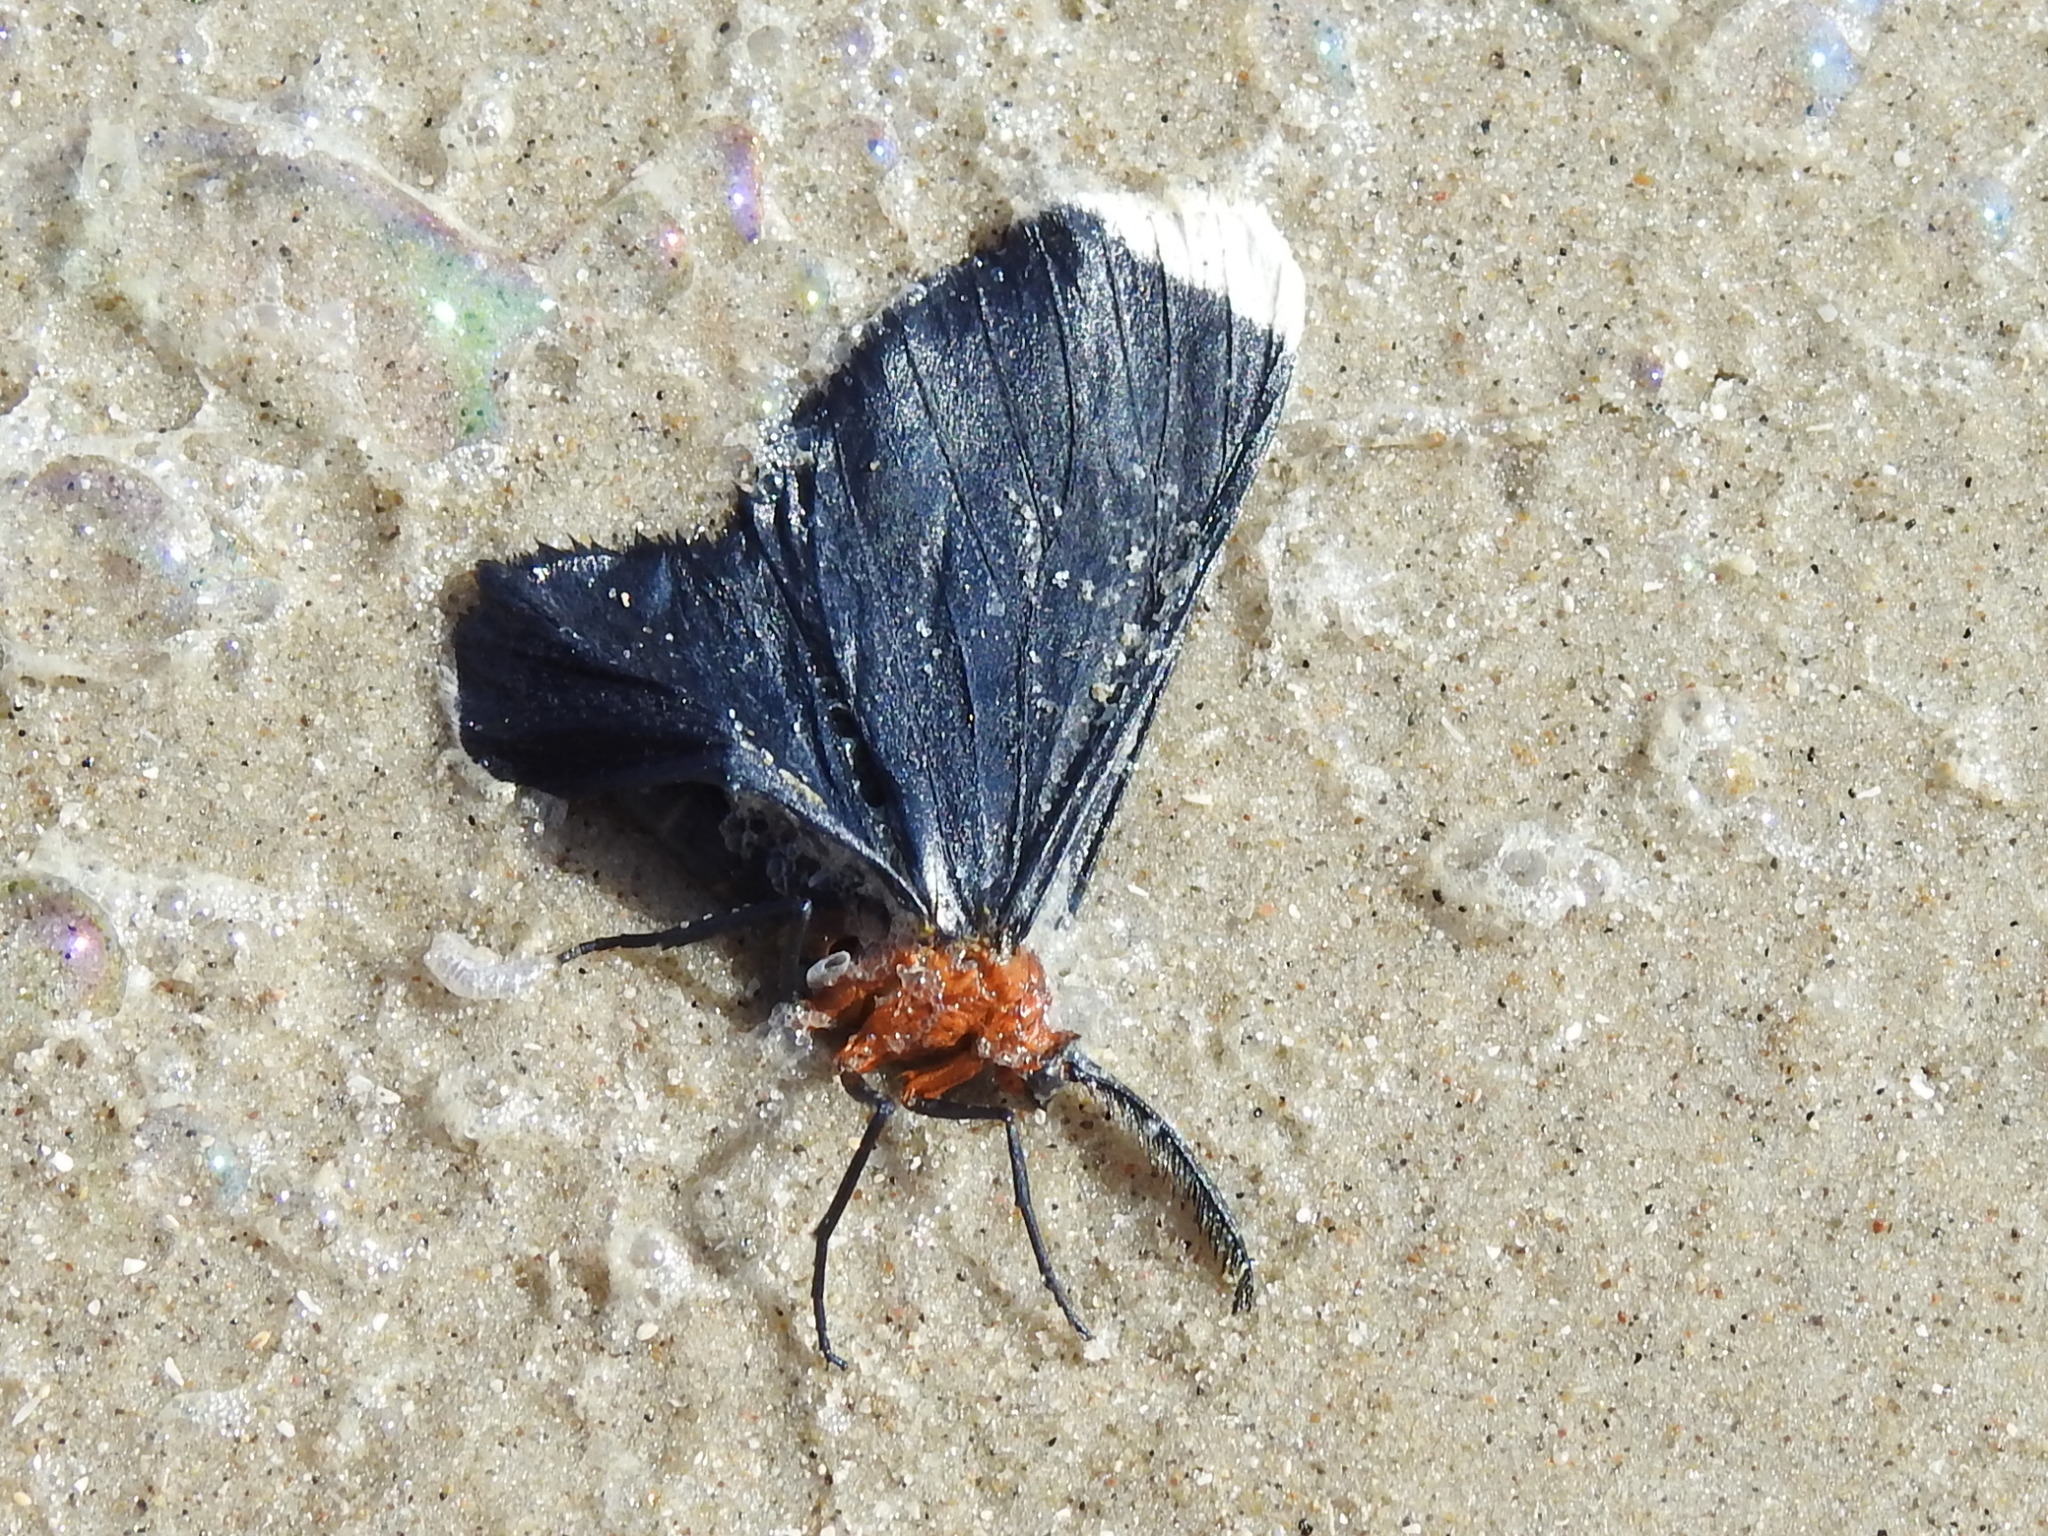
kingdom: Animalia
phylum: Arthropoda
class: Insecta
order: Lepidoptera
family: Geometridae
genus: Melanchroia
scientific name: Melanchroia chephise
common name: White-tipped black
